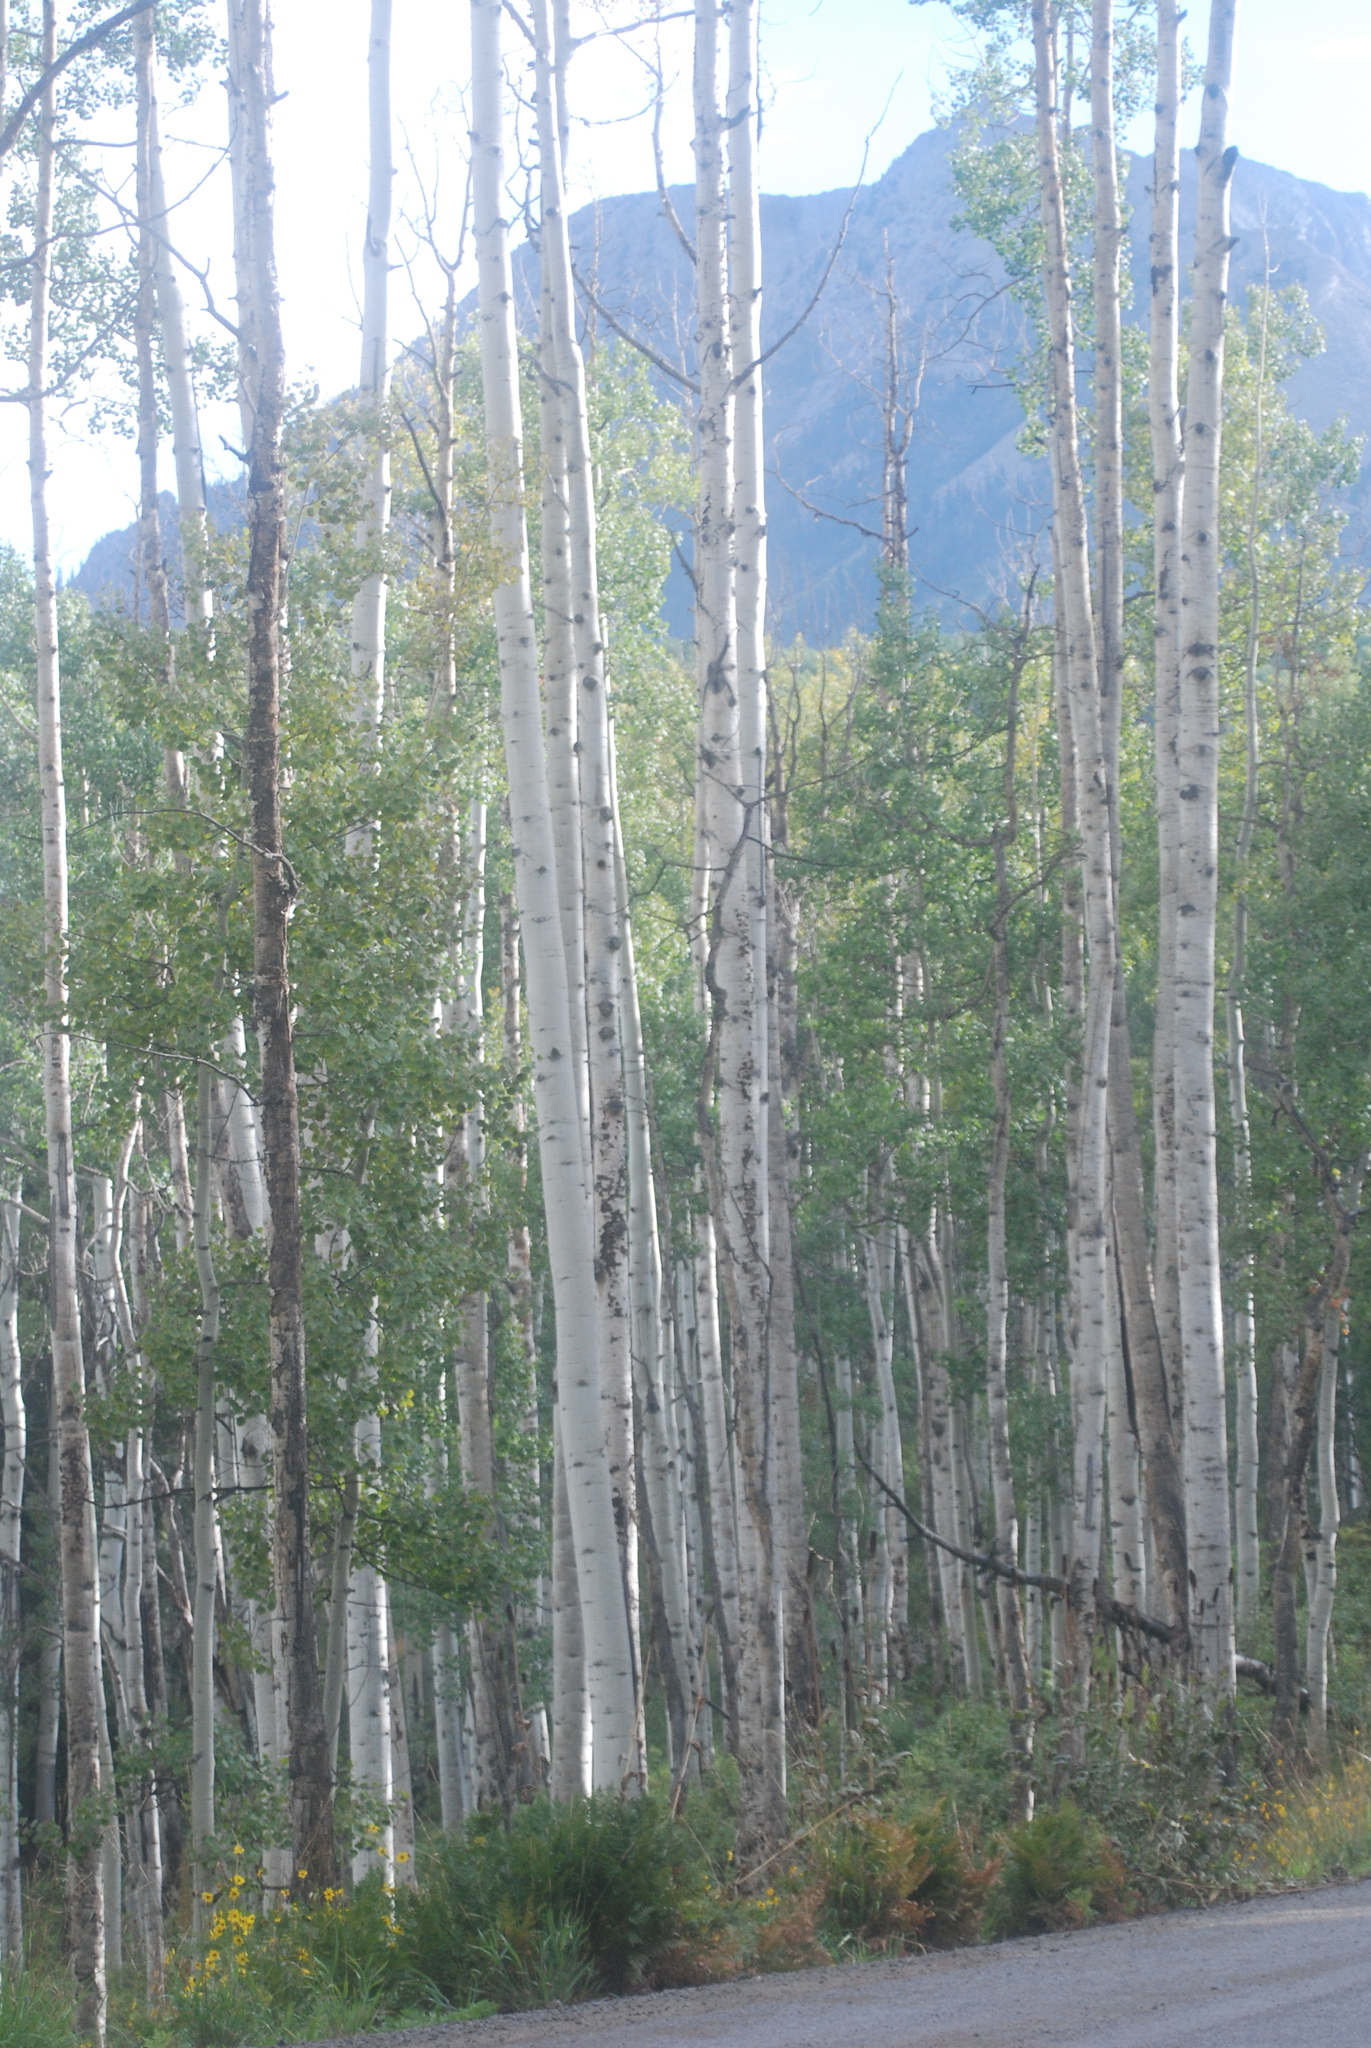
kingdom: Plantae
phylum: Tracheophyta
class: Magnoliopsida
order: Malpighiales
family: Salicaceae
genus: Populus
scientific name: Populus tremuloides
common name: Quaking aspen
